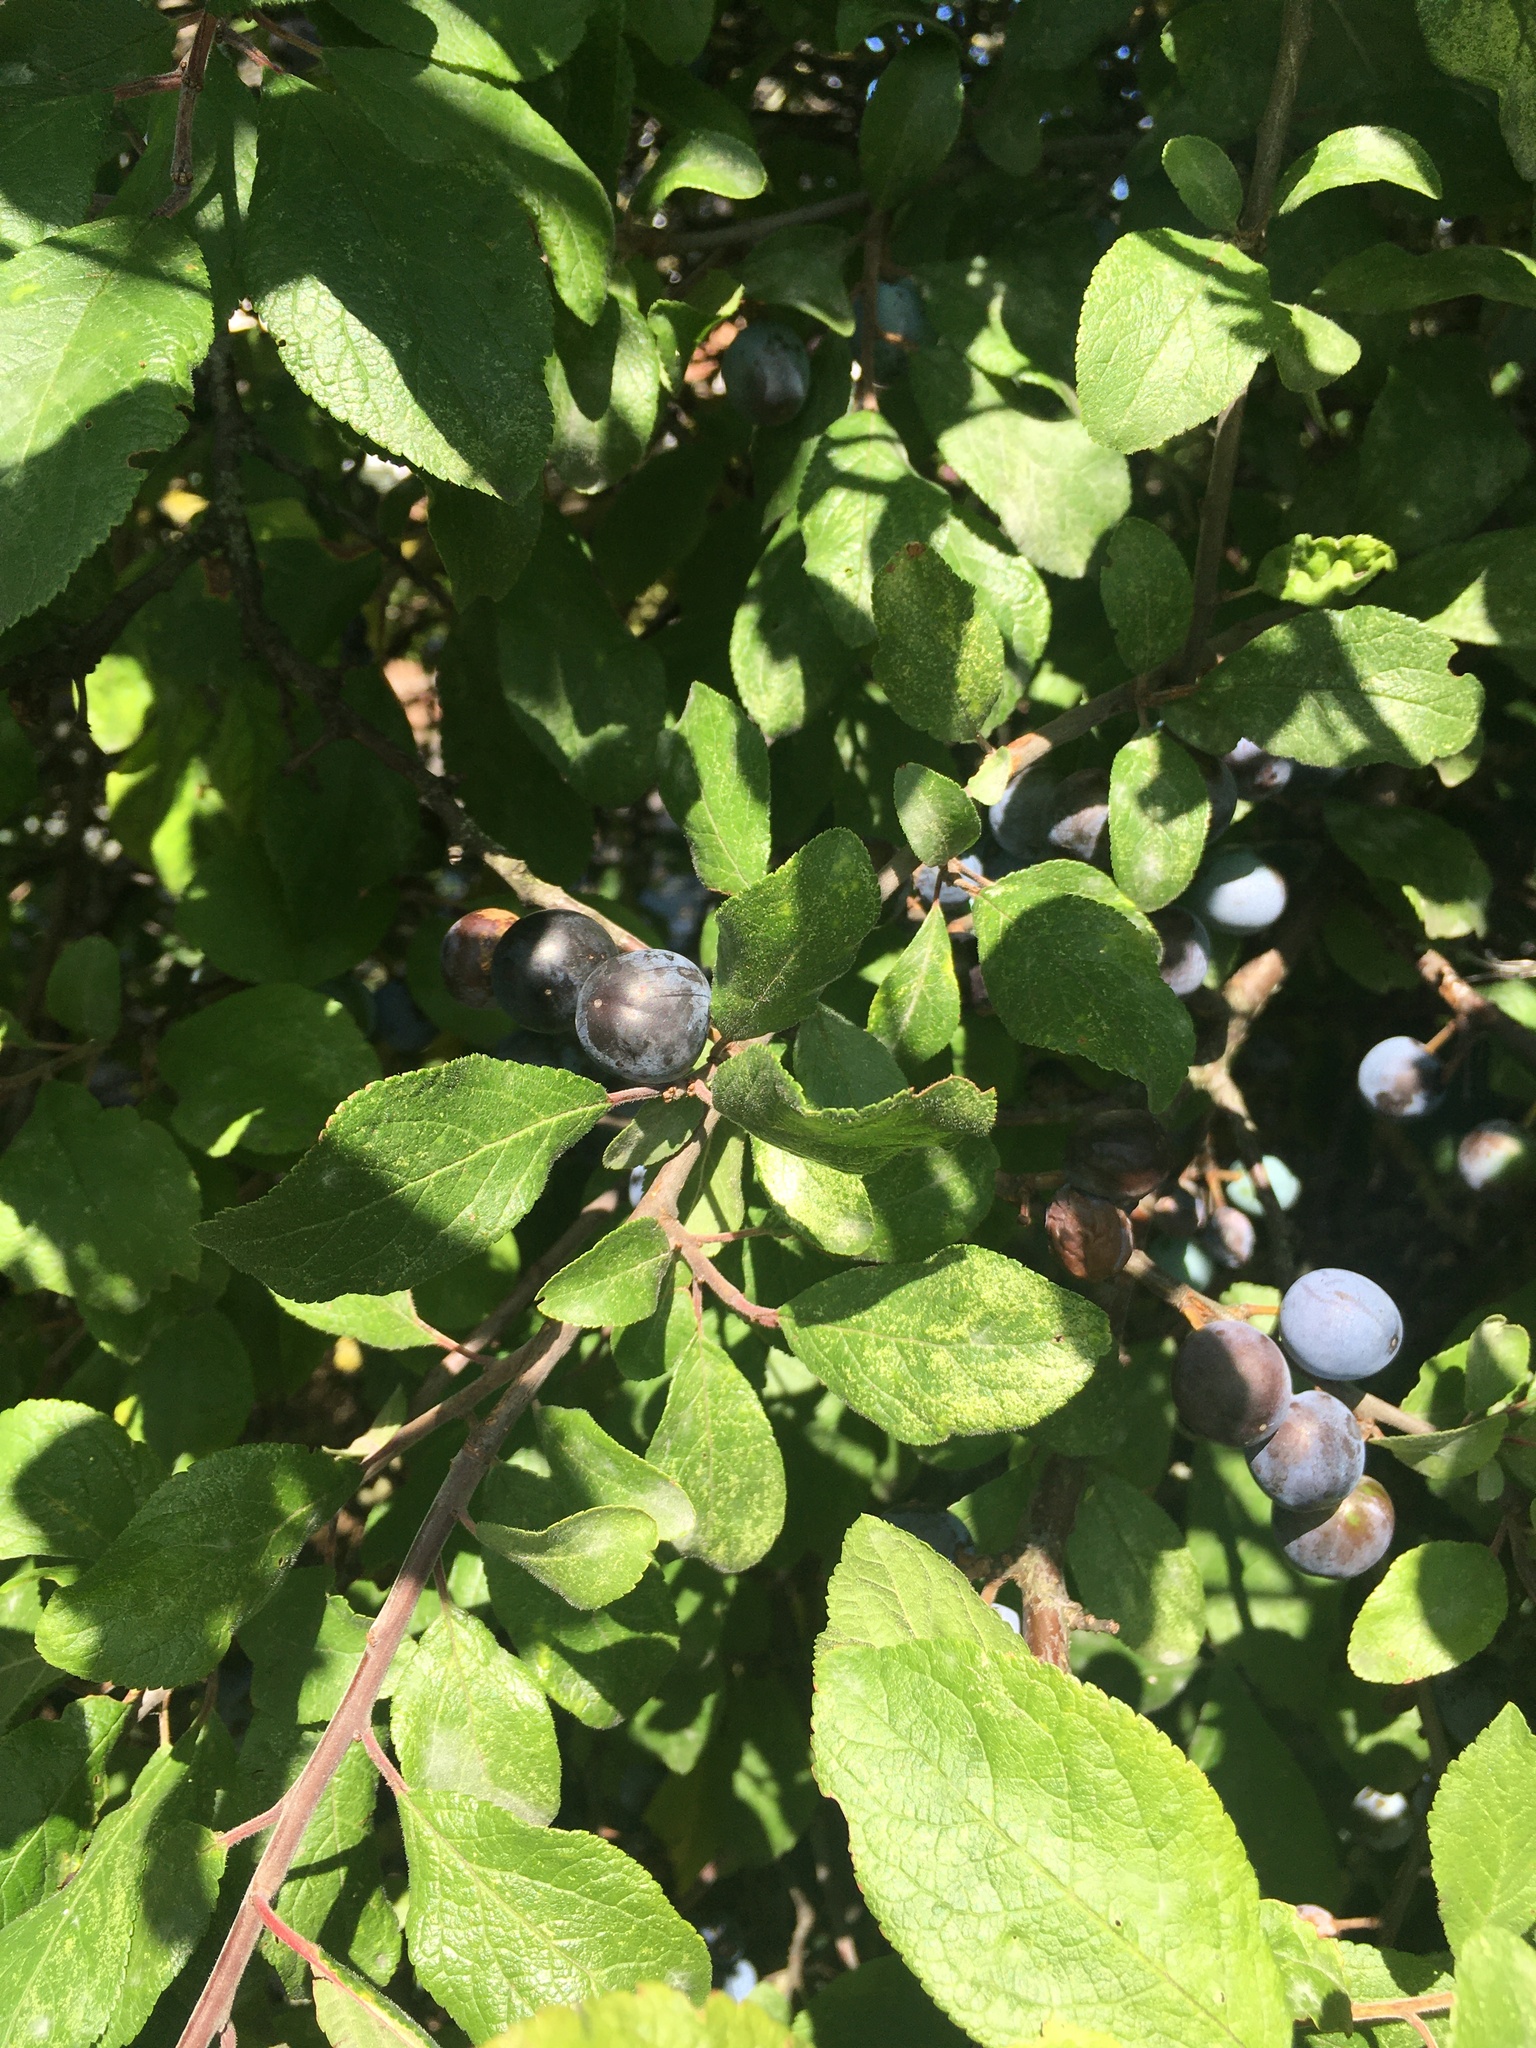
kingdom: Plantae
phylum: Tracheophyta
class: Magnoliopsida
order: Rosales
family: Rosaceae
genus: Prunus
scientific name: Prunus spinosa
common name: Blackthorn
